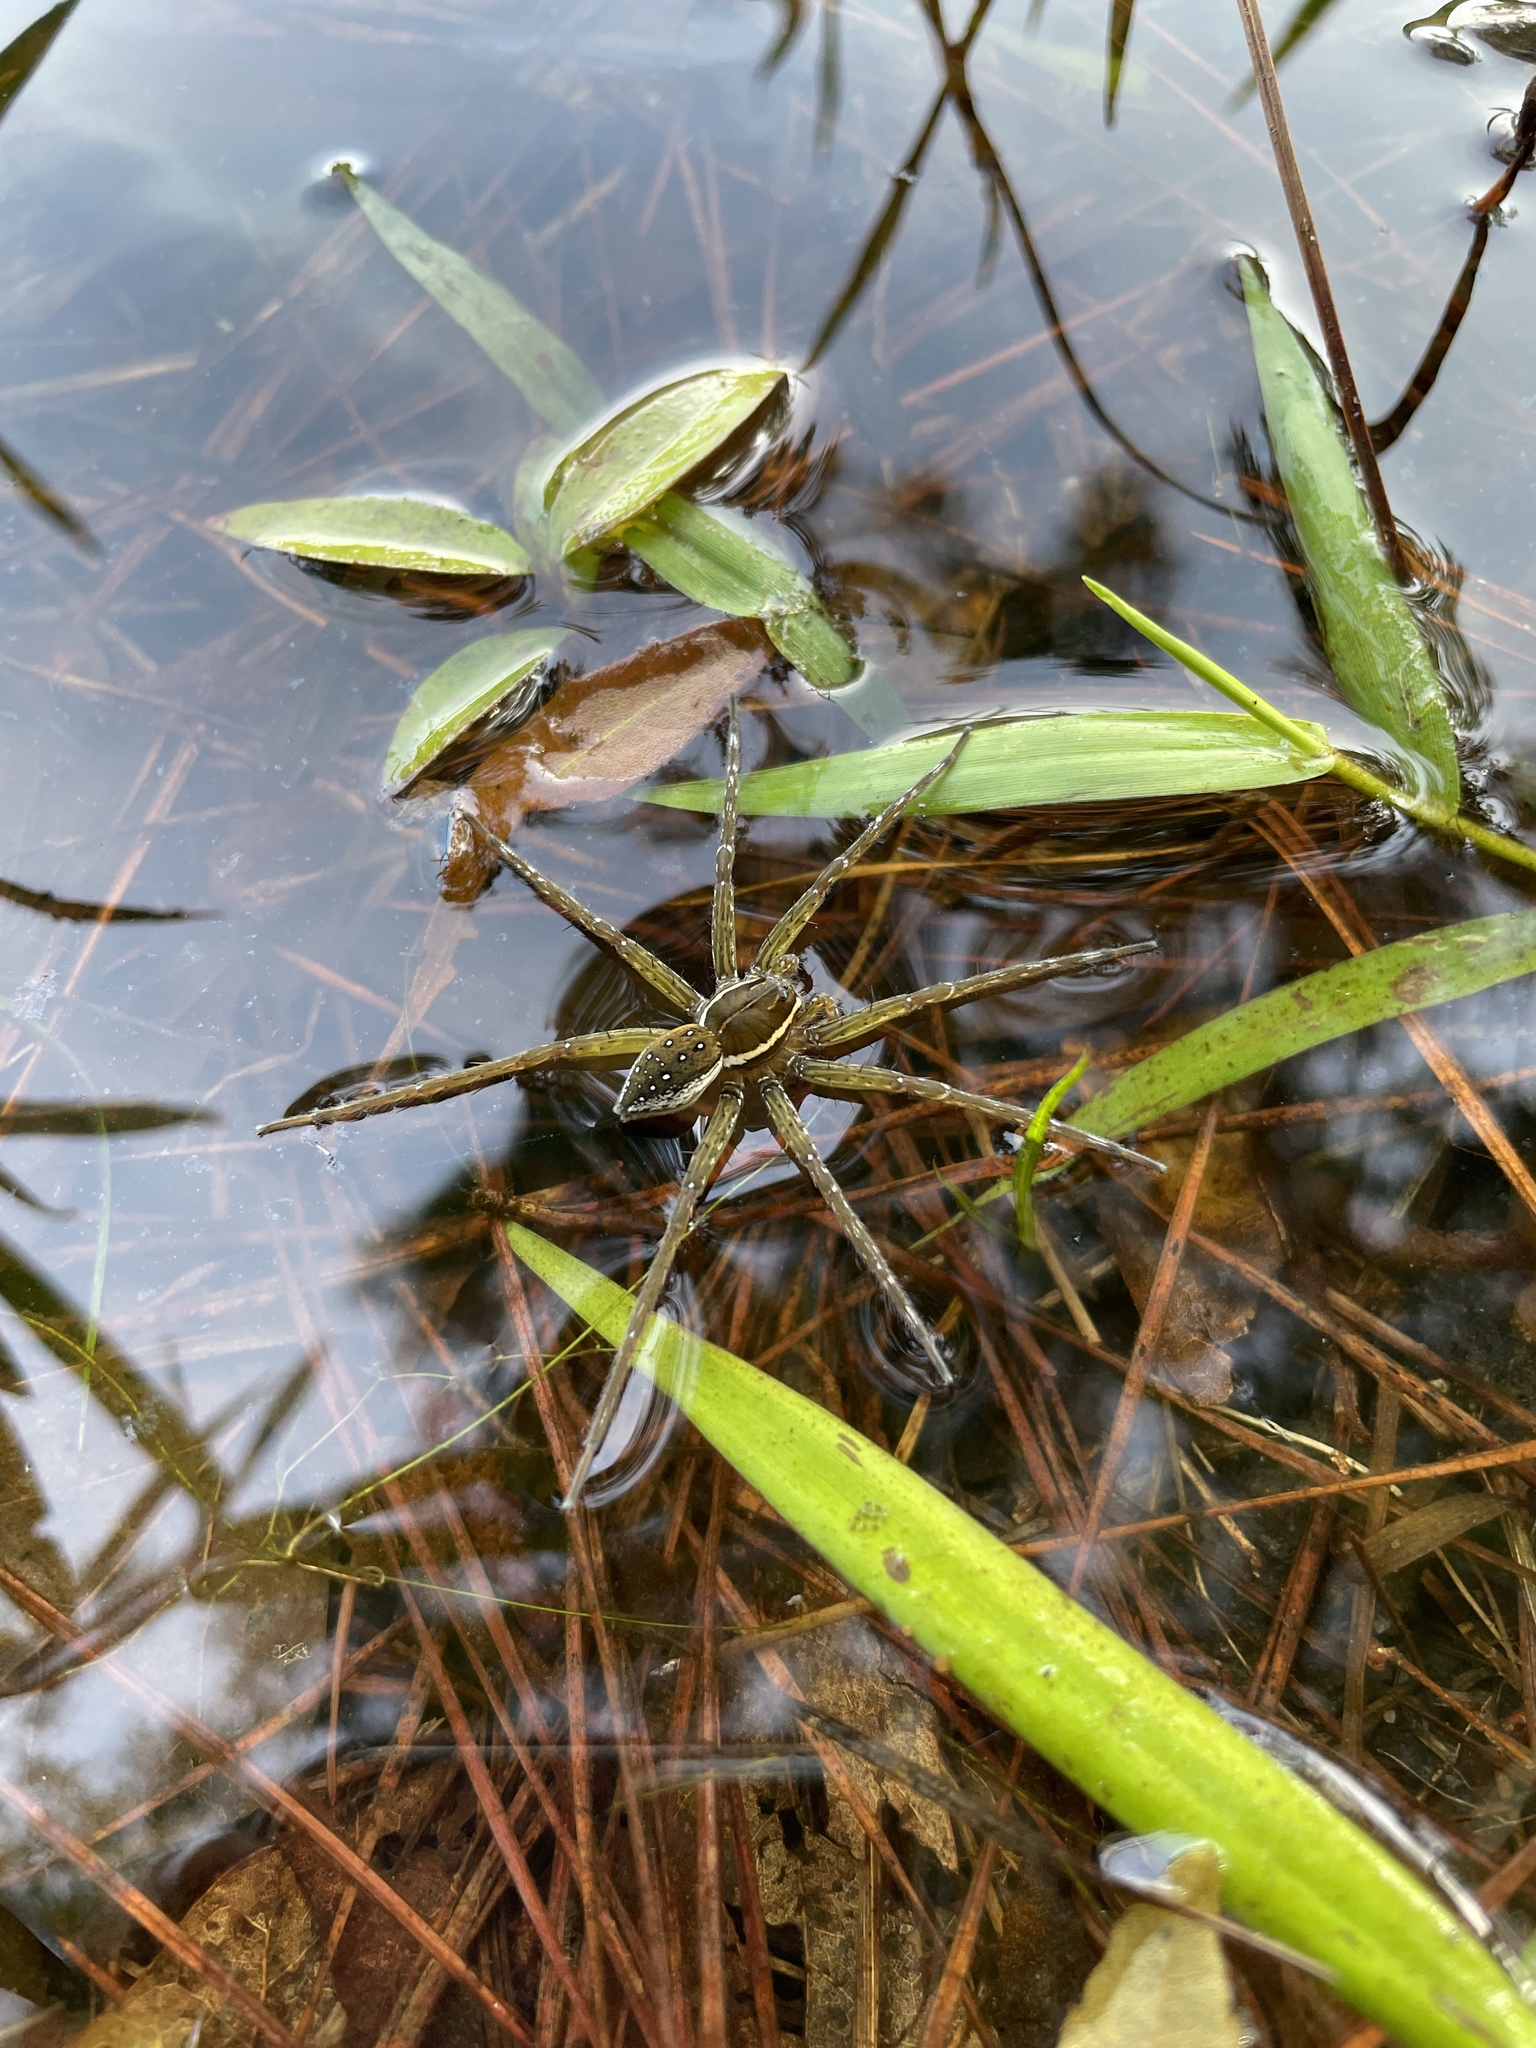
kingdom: Animalia
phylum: Arthropoda
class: Arachnida
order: Araneae
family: Pisauridae
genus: Dolomedes
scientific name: Dolomedes triton
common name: Six-spotted fishing spider
